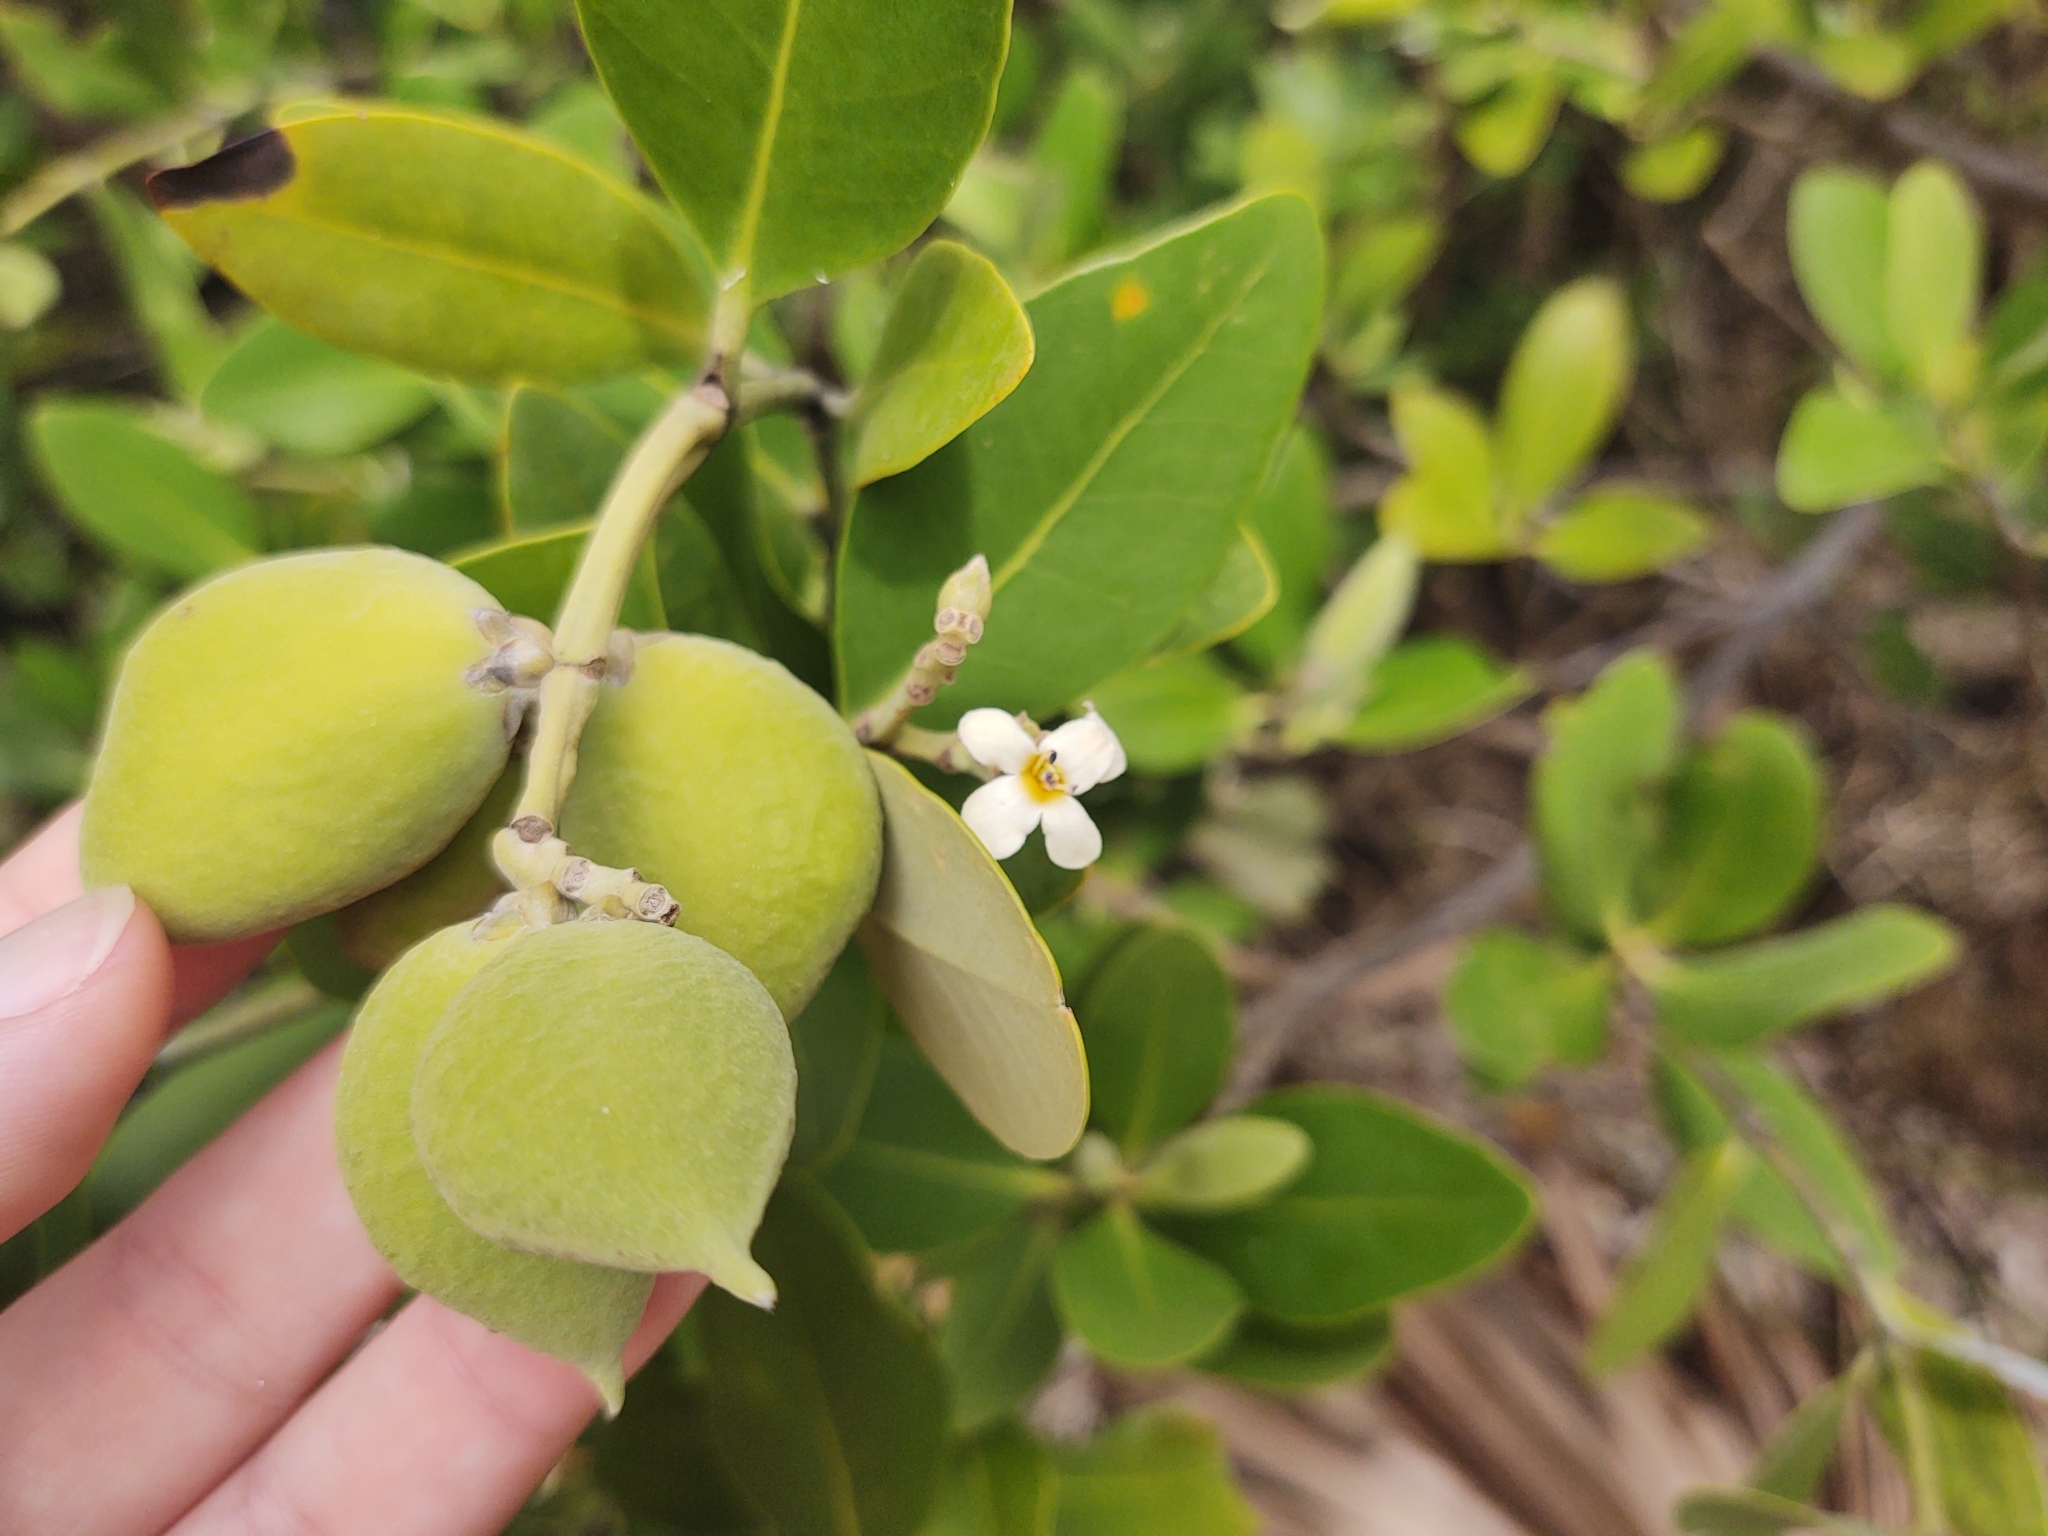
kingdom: Plantae
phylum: Tracheophyta
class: Magnoliopsida
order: Lamiales
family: Acanthaceae
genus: Avicennia
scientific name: Avicennia germinans
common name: Black mangrove
